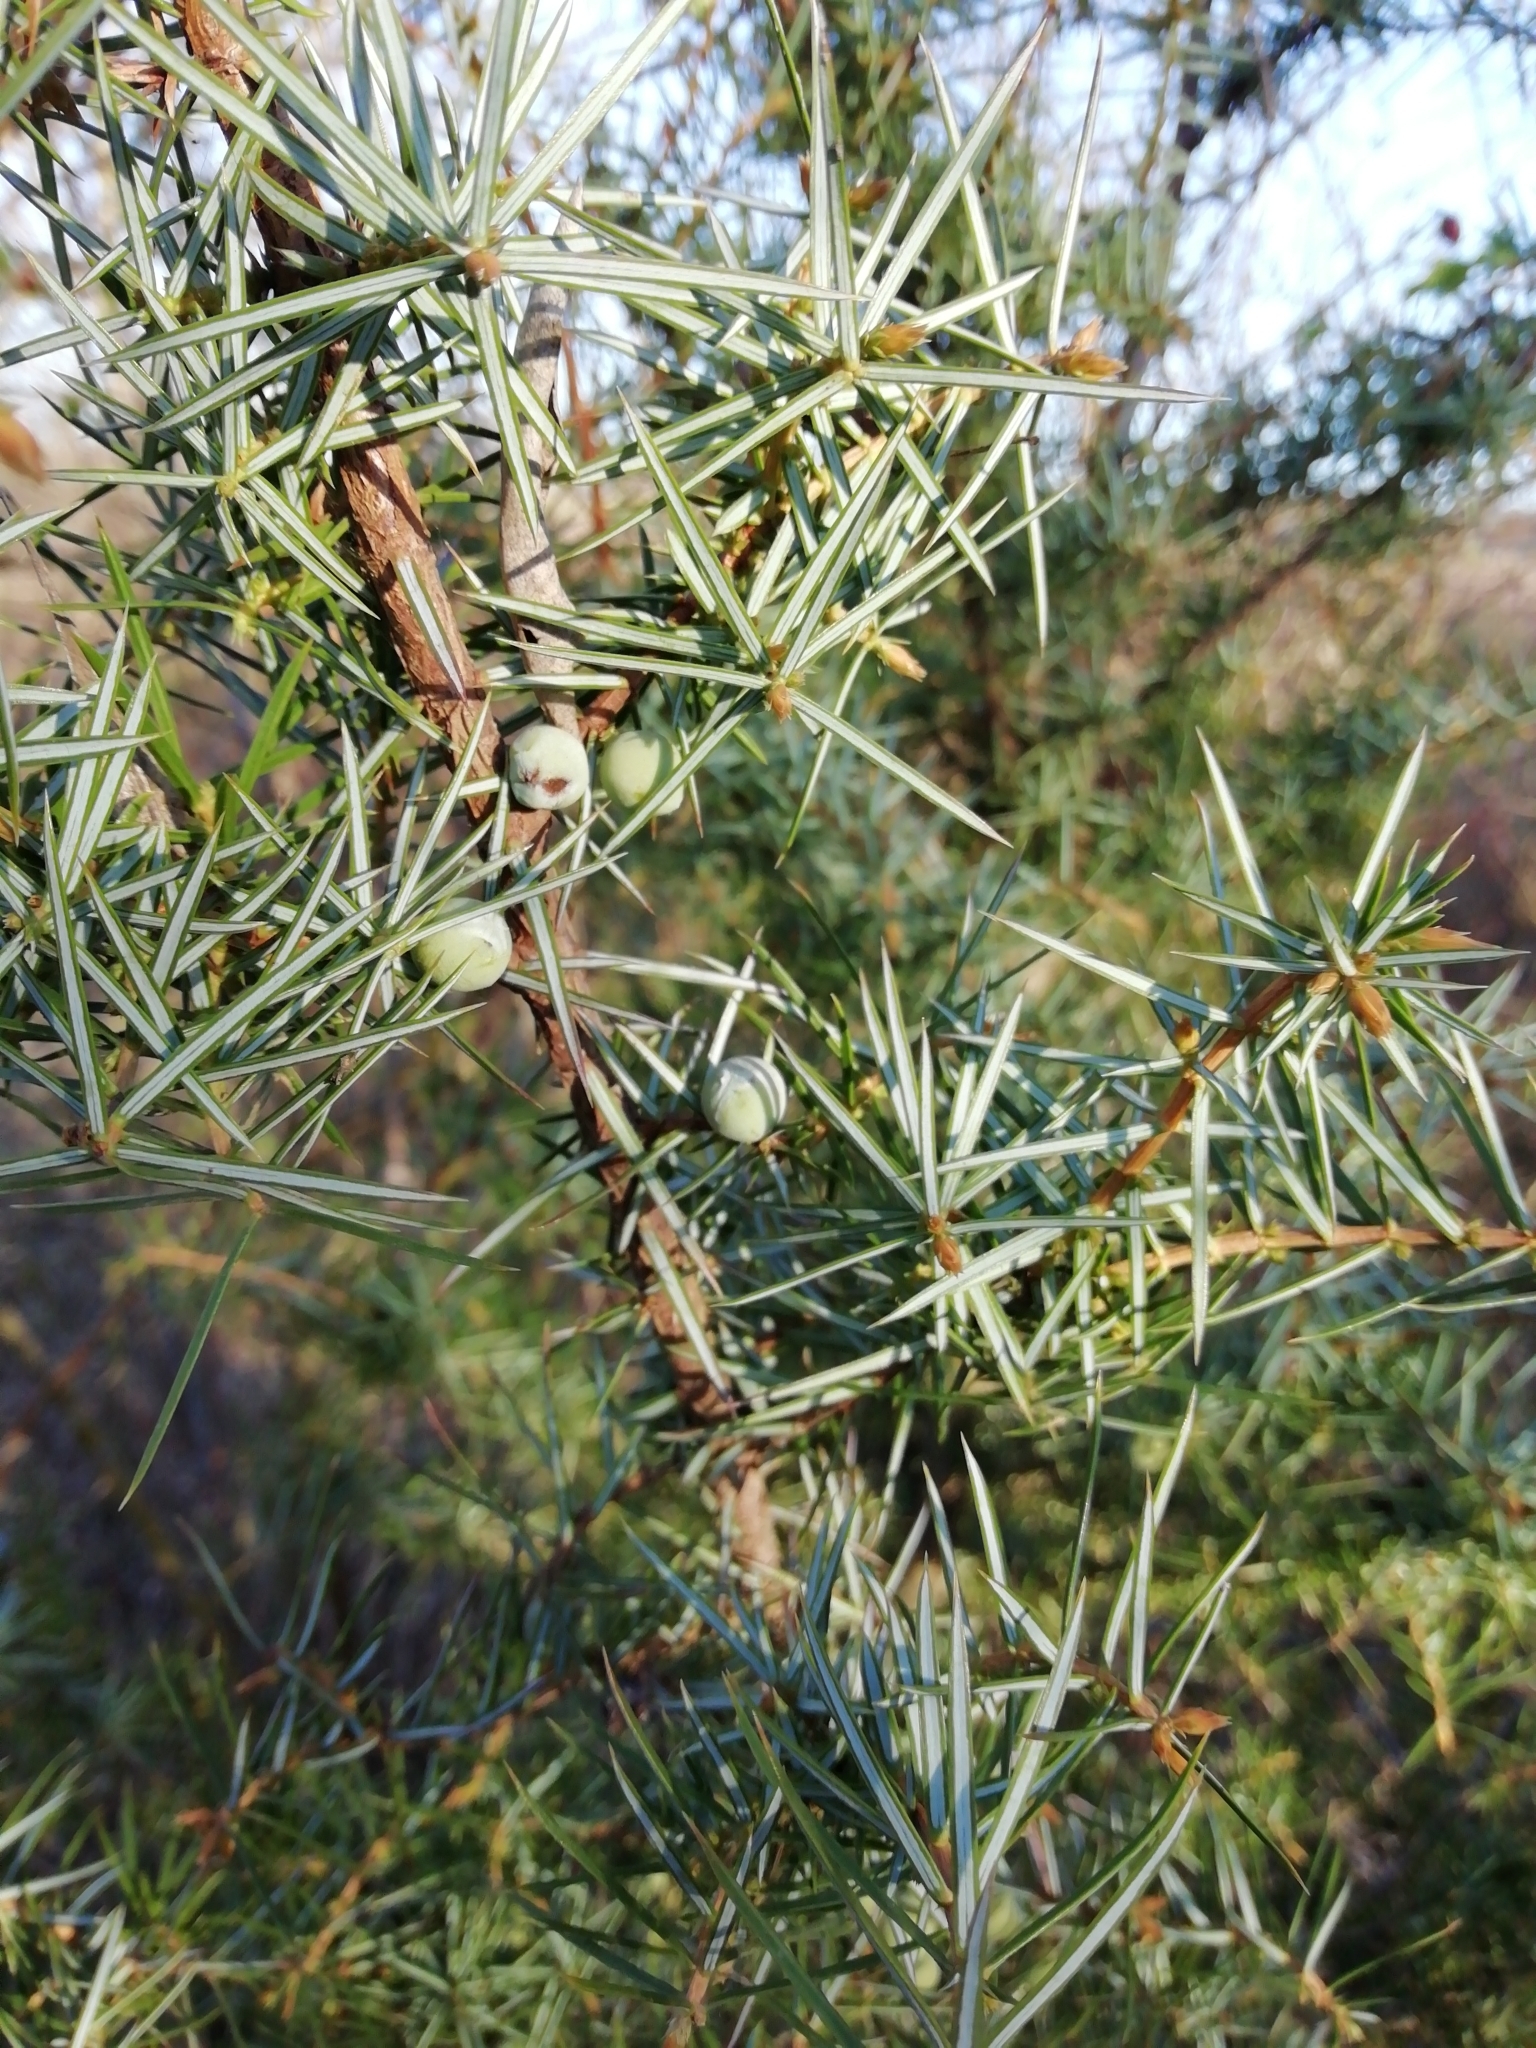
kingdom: Plantae
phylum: Tracheophyta
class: Pinopsida
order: Pinales
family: Cupressaceae
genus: Juniperus
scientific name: Juniperus communis
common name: Common juniper
